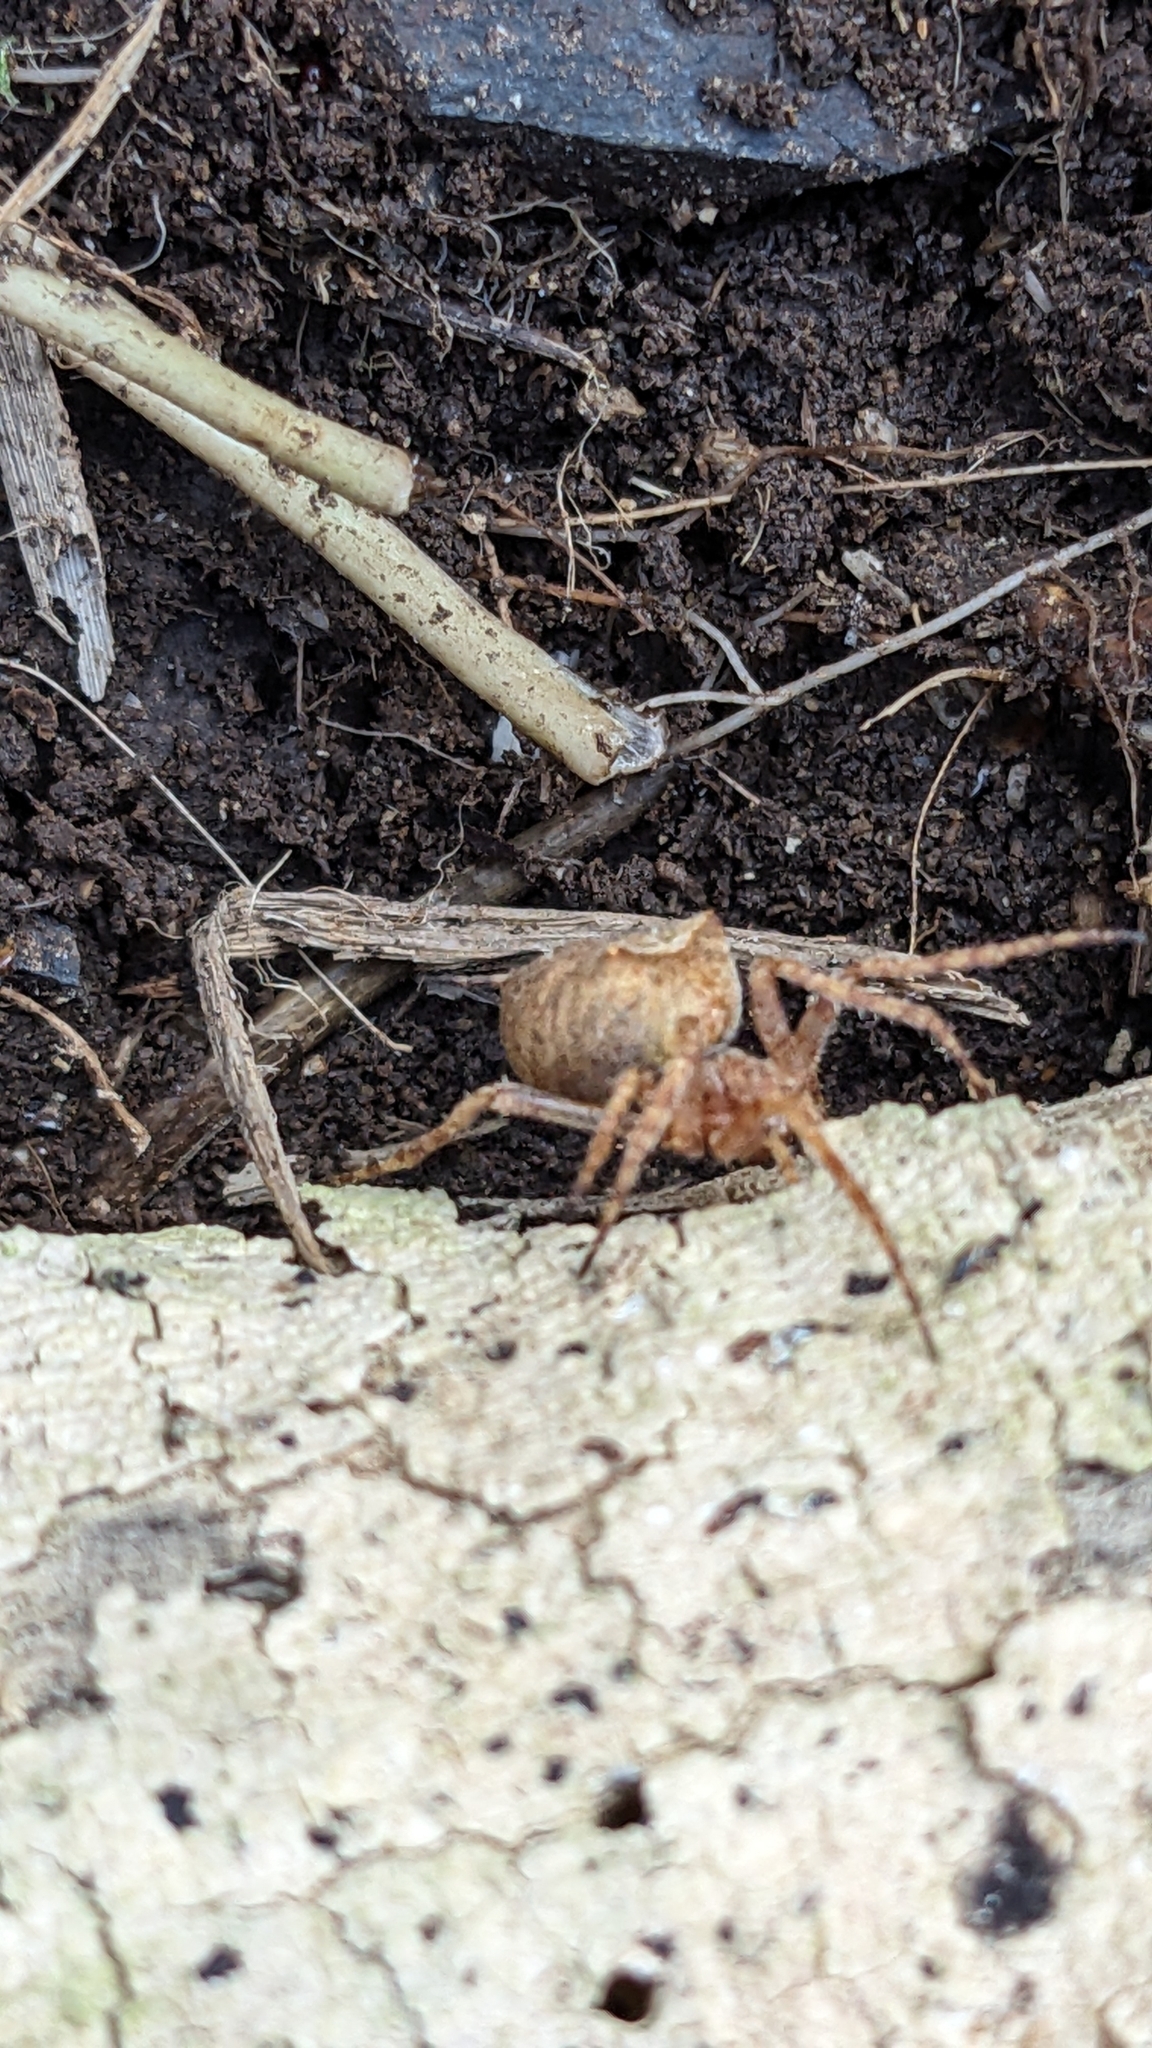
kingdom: Animalia
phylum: Arthropoda
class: Arachnida
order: Araneae
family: Araneidae
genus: Backobourkia
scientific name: Backobourkia brouni
